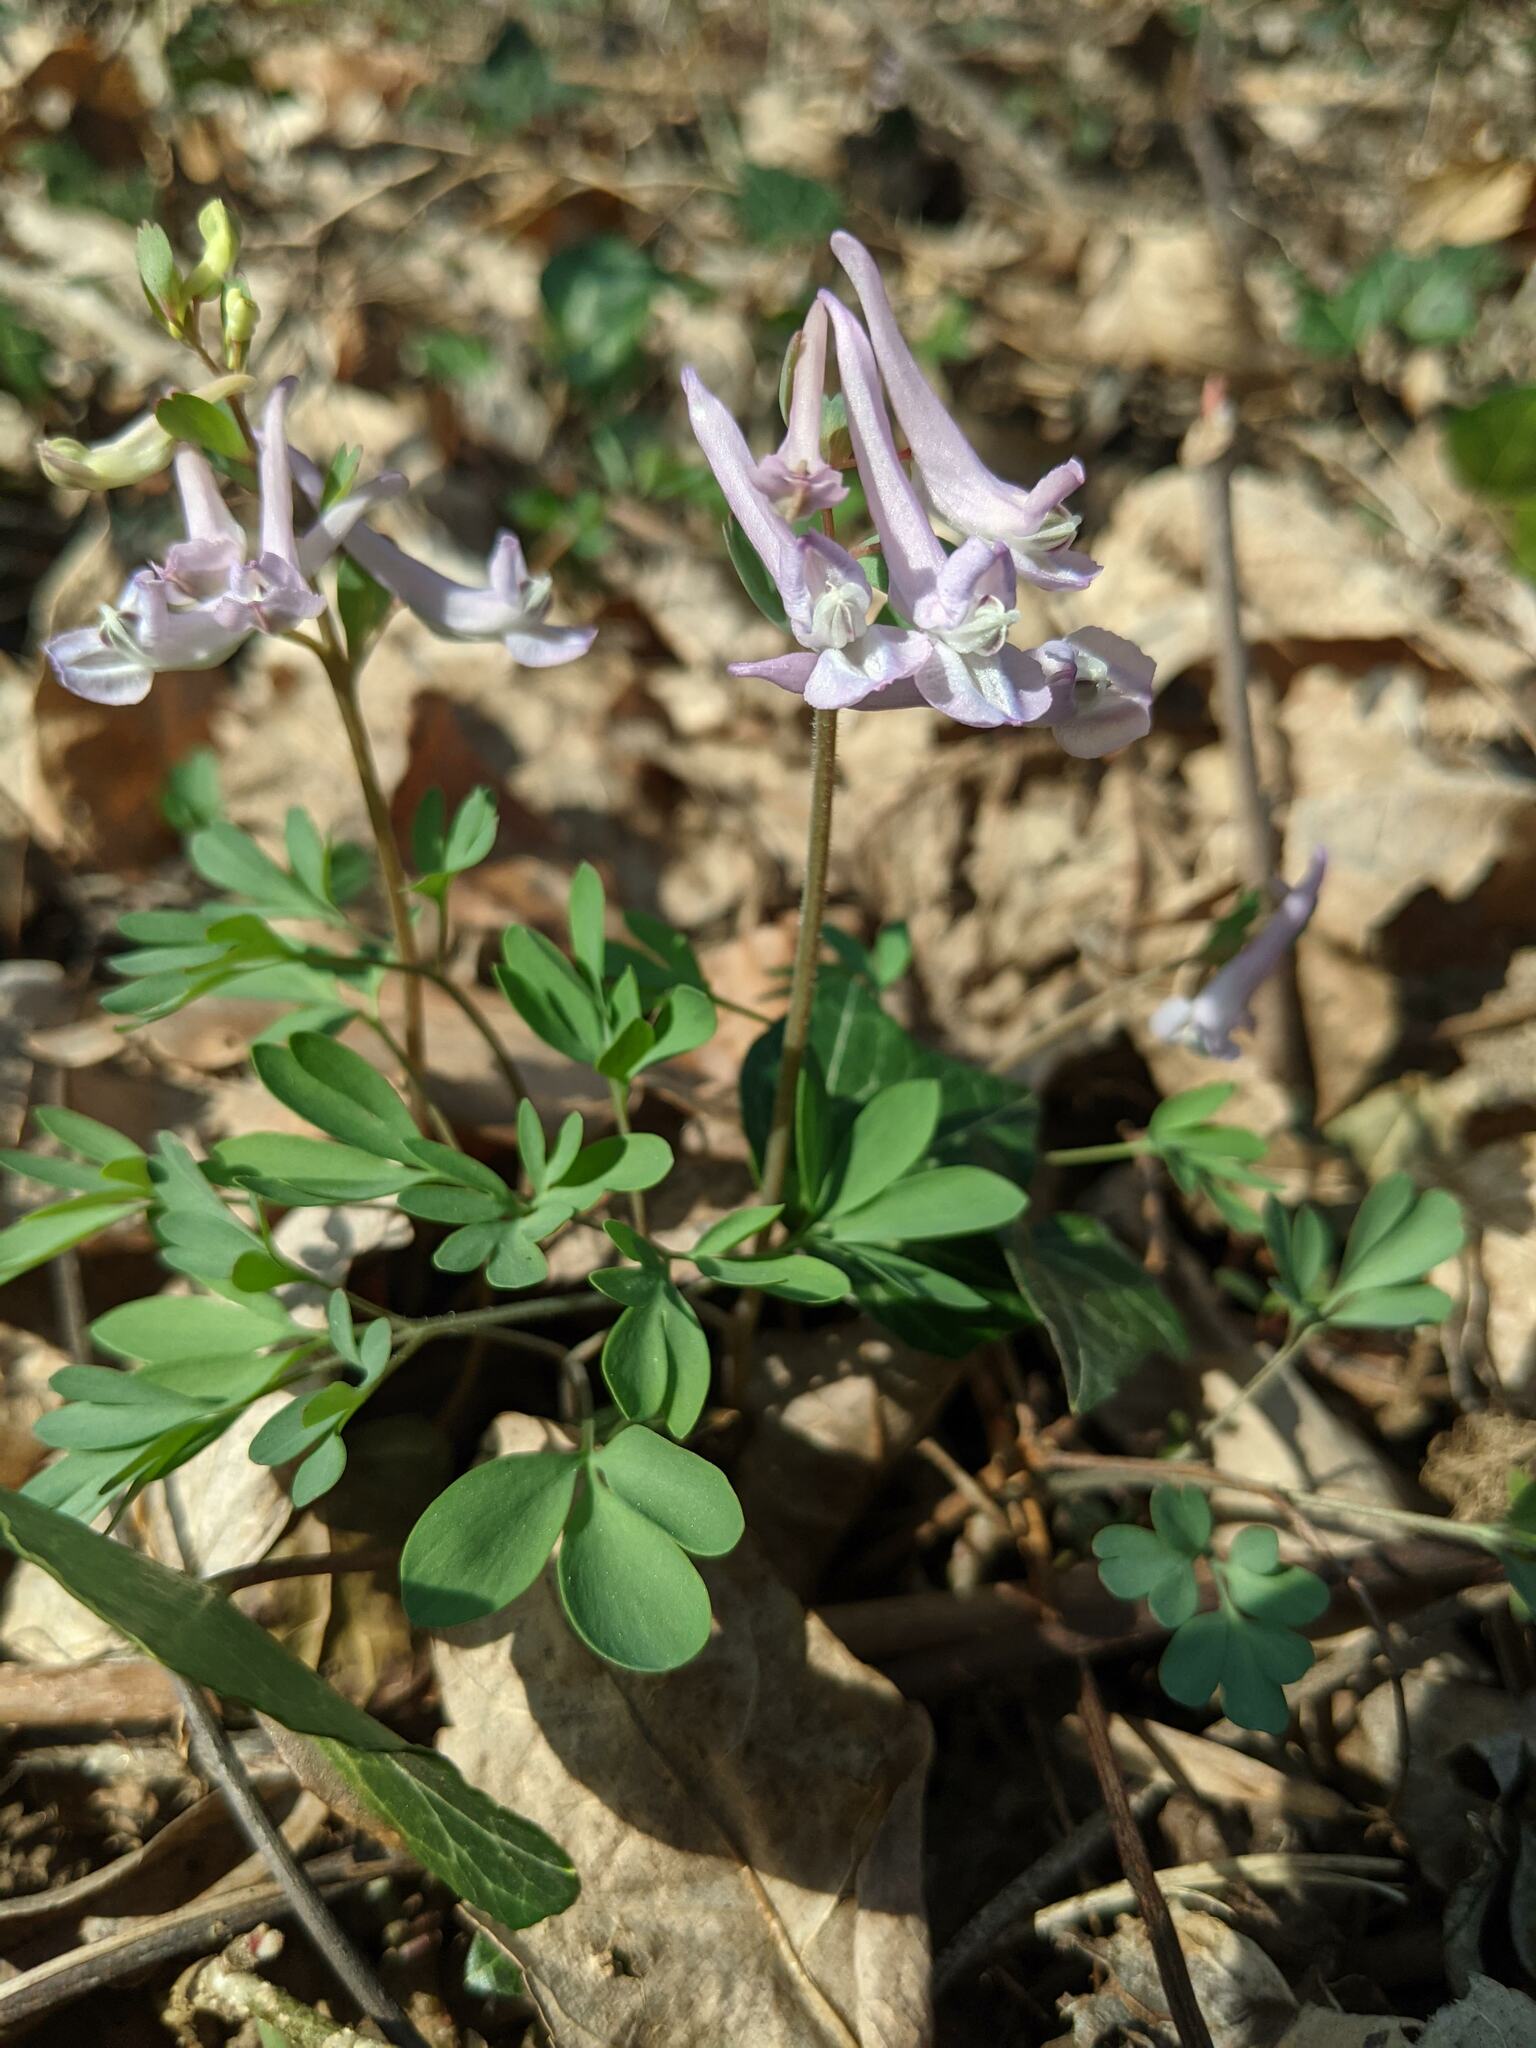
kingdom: Plantae
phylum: Tracheophyta
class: Magnoliopsida
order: Ranunculales
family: Papaveraceae
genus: Corydalis
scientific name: Corydalis solida
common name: Bird-in-a-bush
